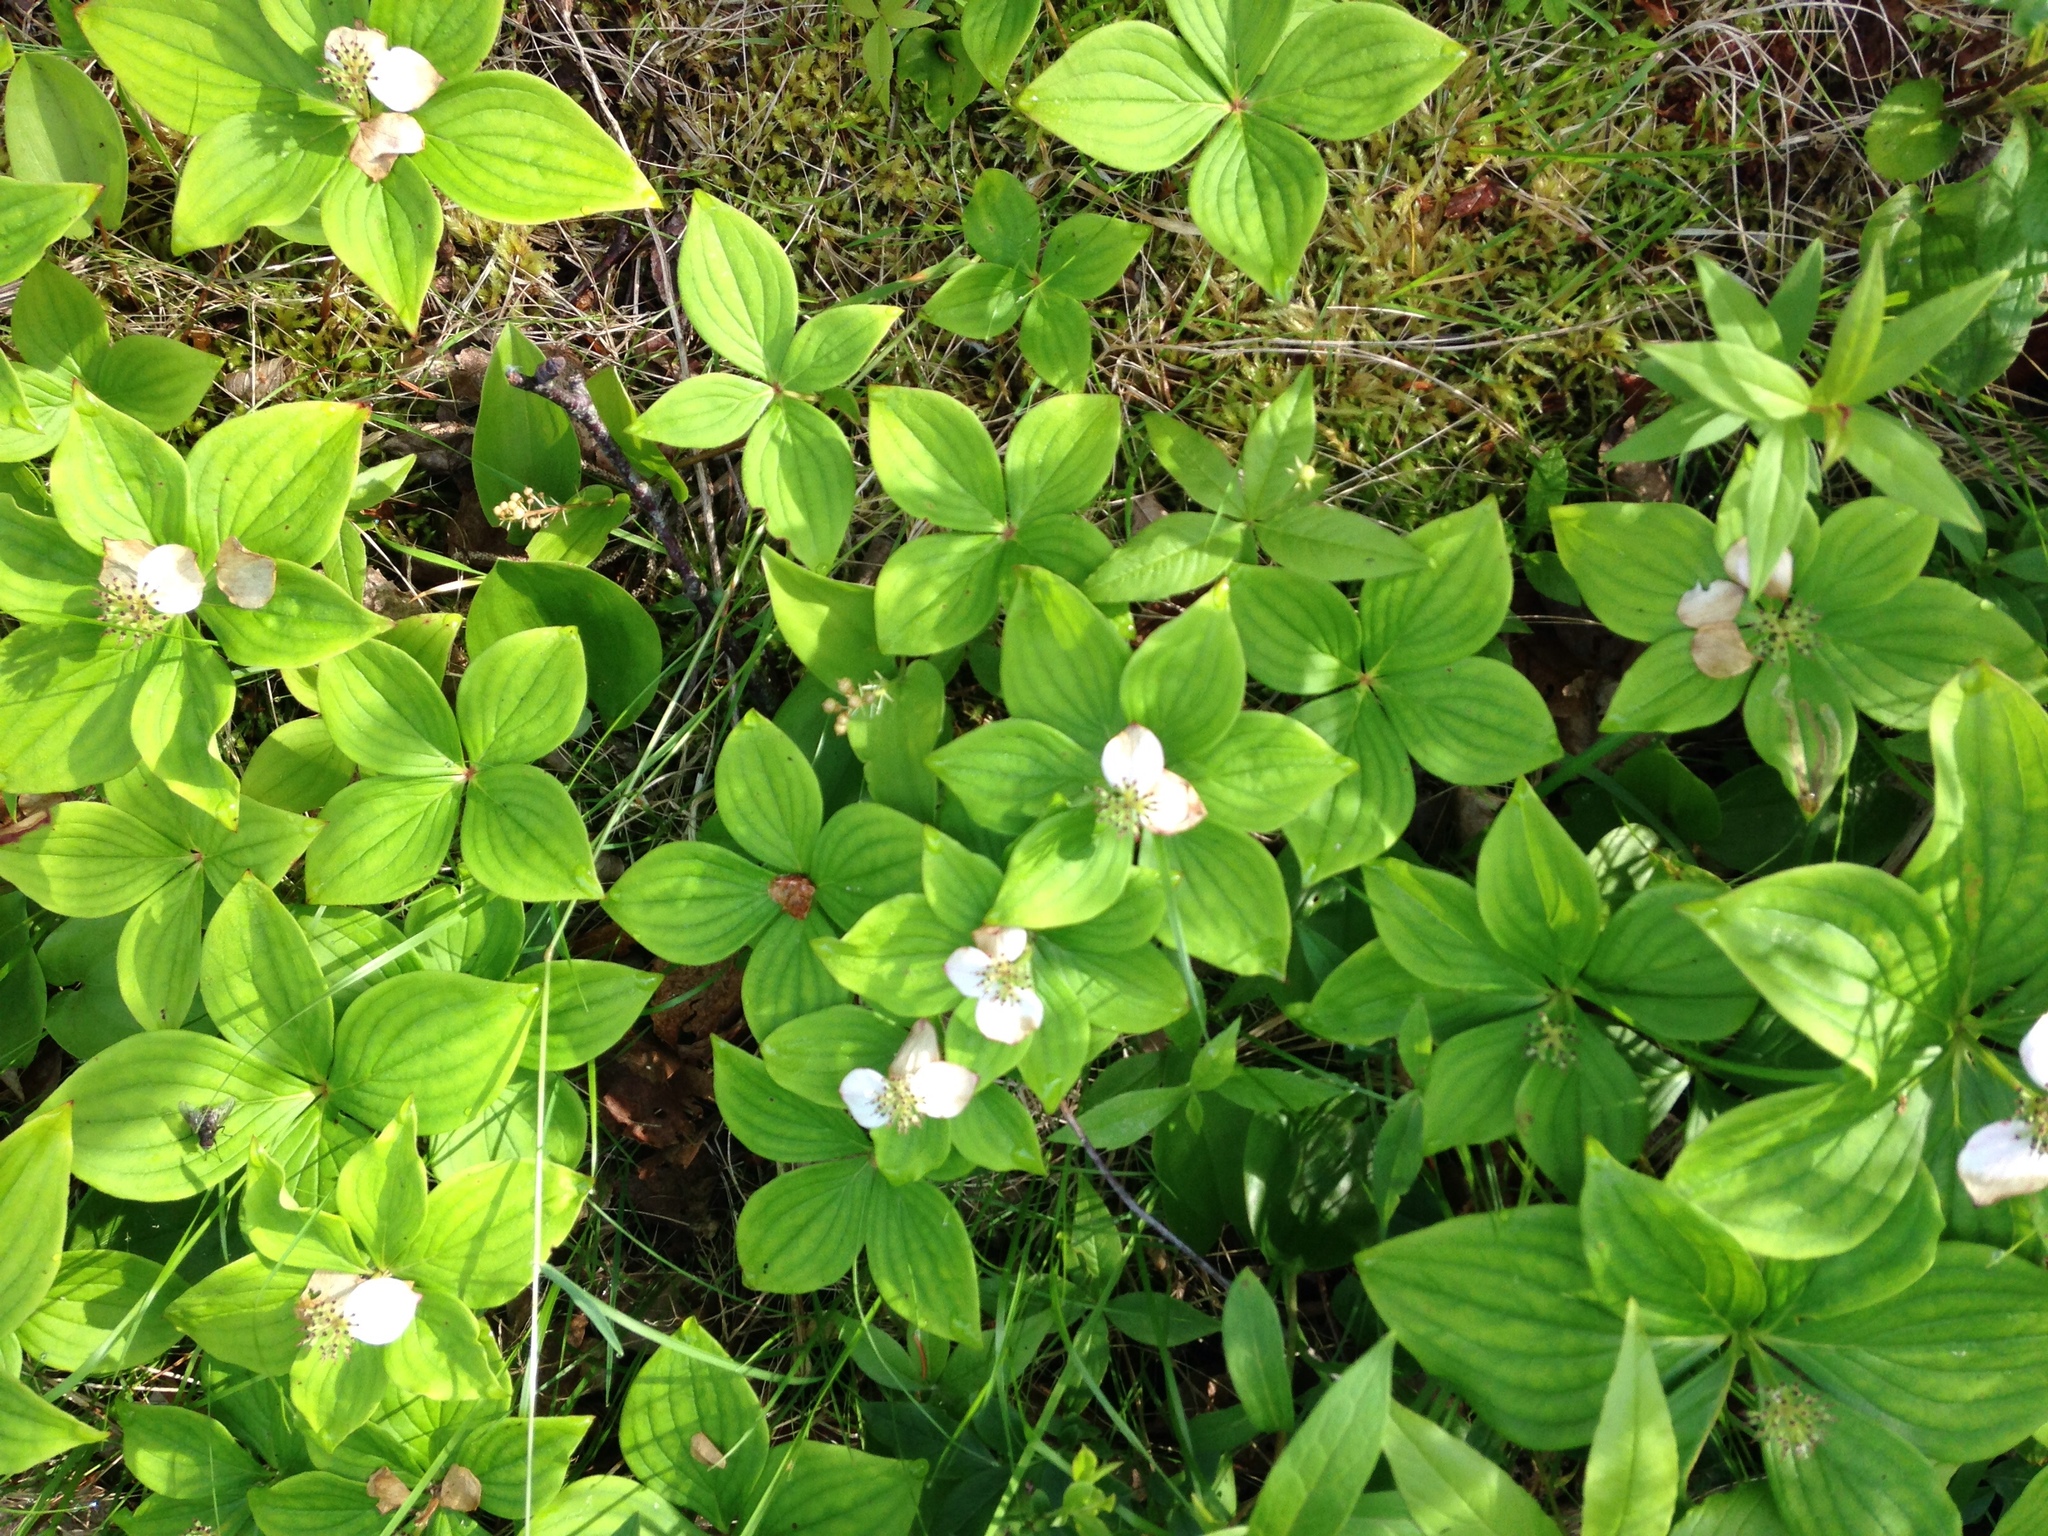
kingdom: Plantae
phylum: Tracheophyta
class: Magnoliopsida
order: Cornales
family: Cornaceae
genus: Cornus
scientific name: Cornus canadensis
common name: Creeping dogwood
